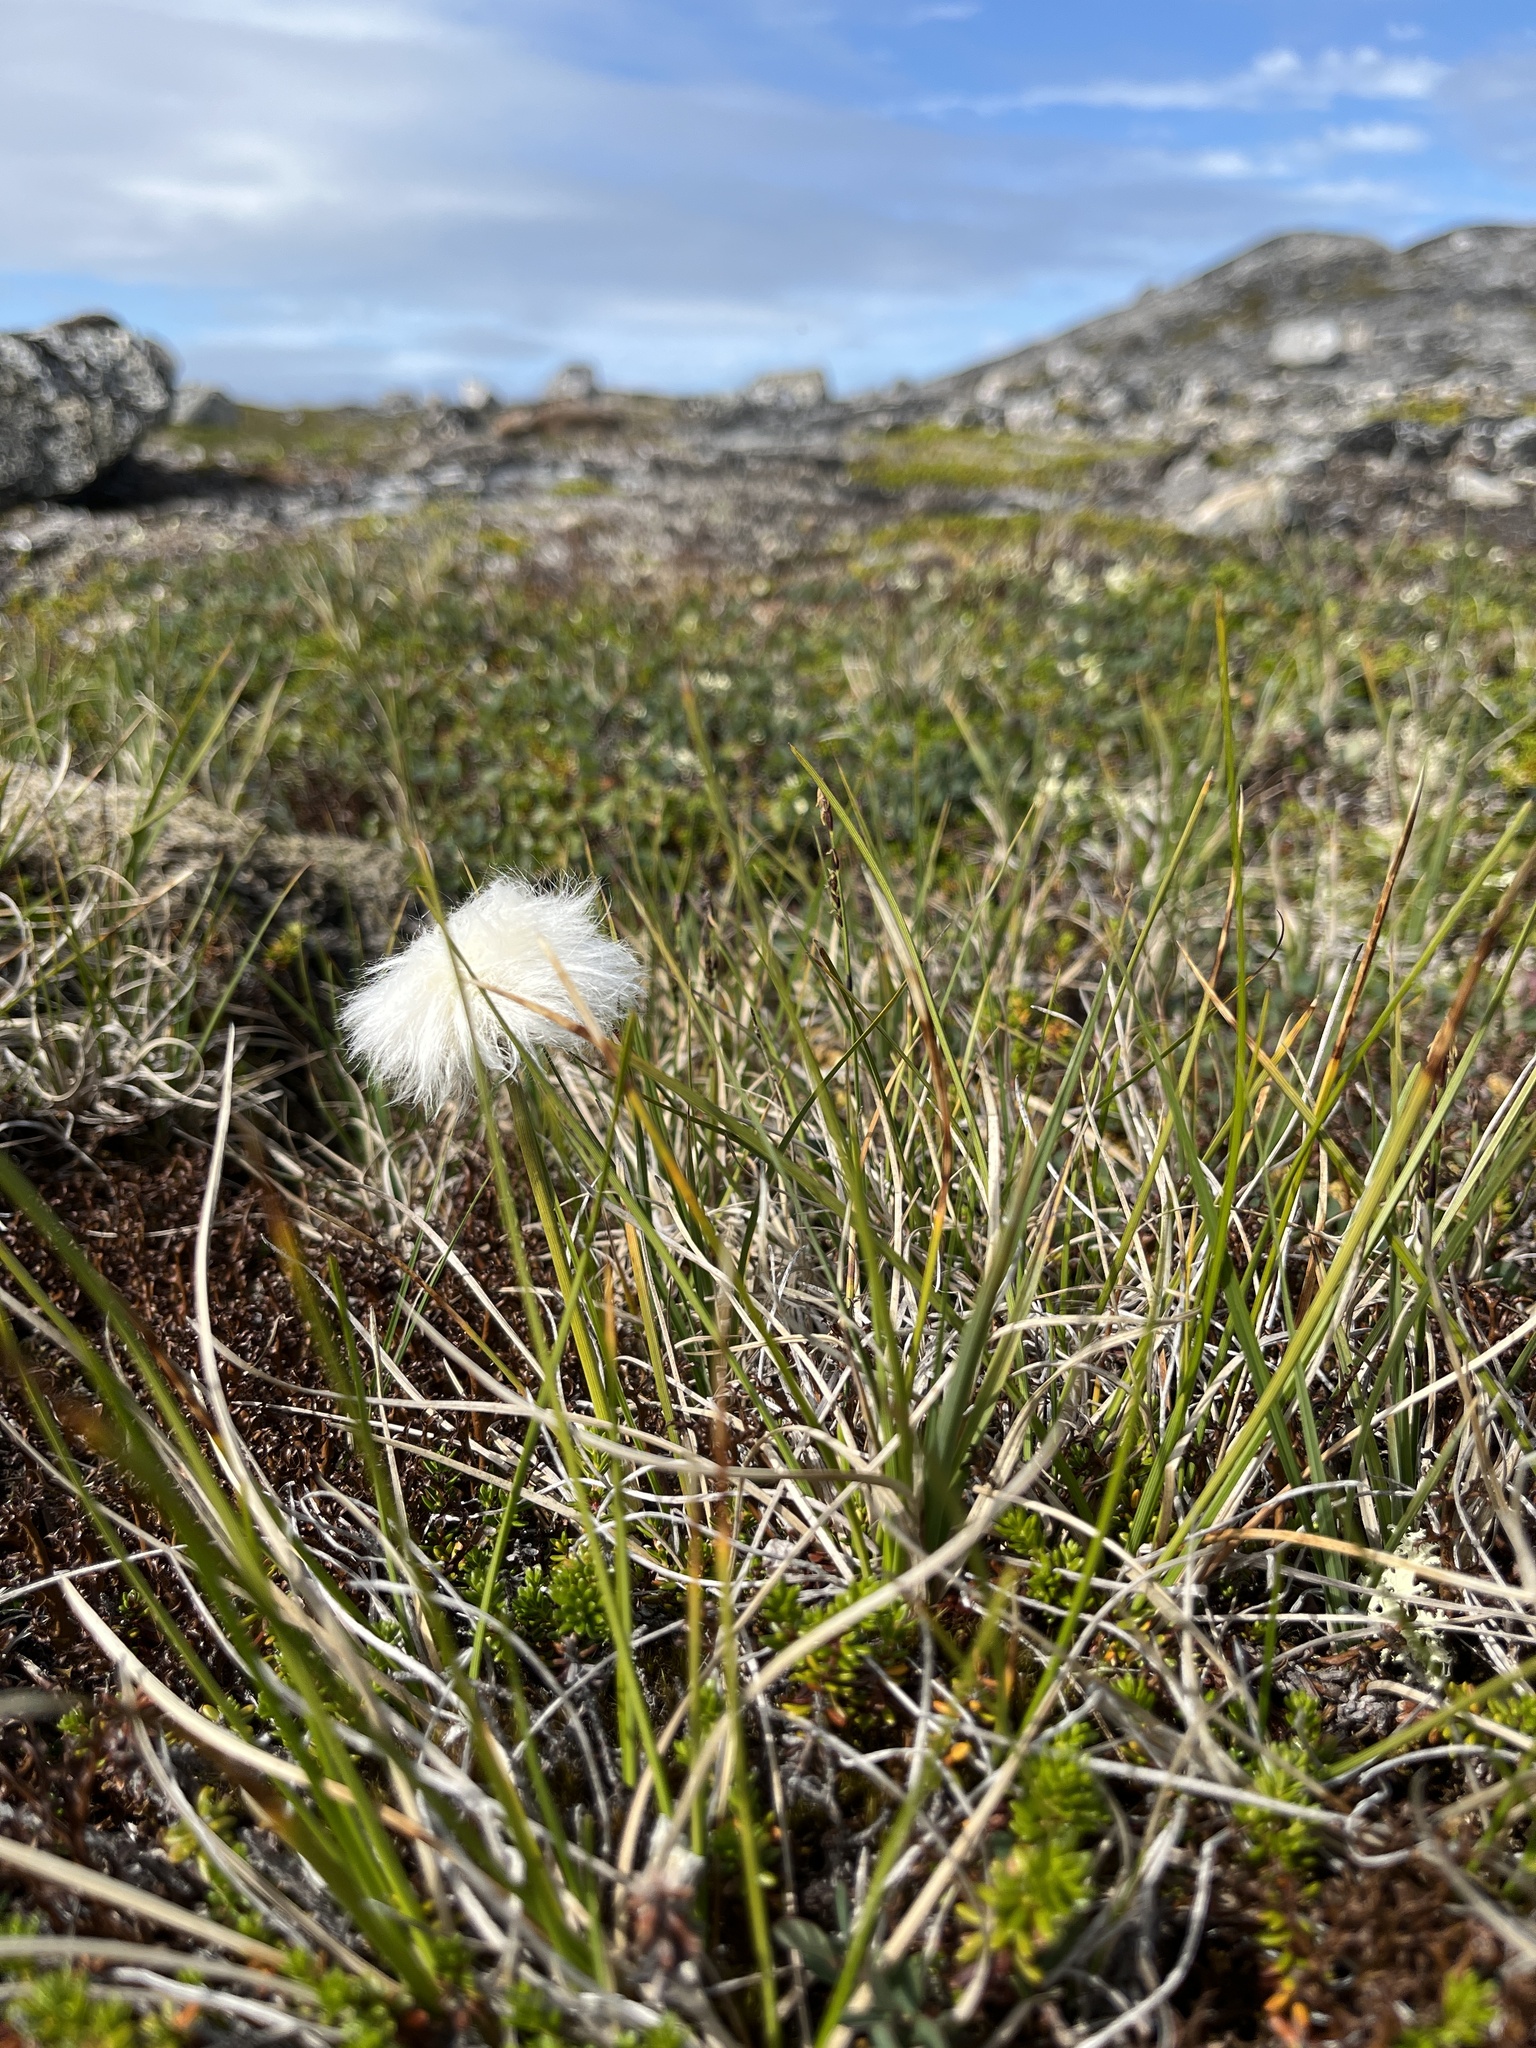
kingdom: Plantae
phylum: Tracheophyta
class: Liliopsida
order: Poales
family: Cyperaceae
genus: Eriophorum
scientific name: Eriophorum vaginatum
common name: Hare's-tail cottongrass
